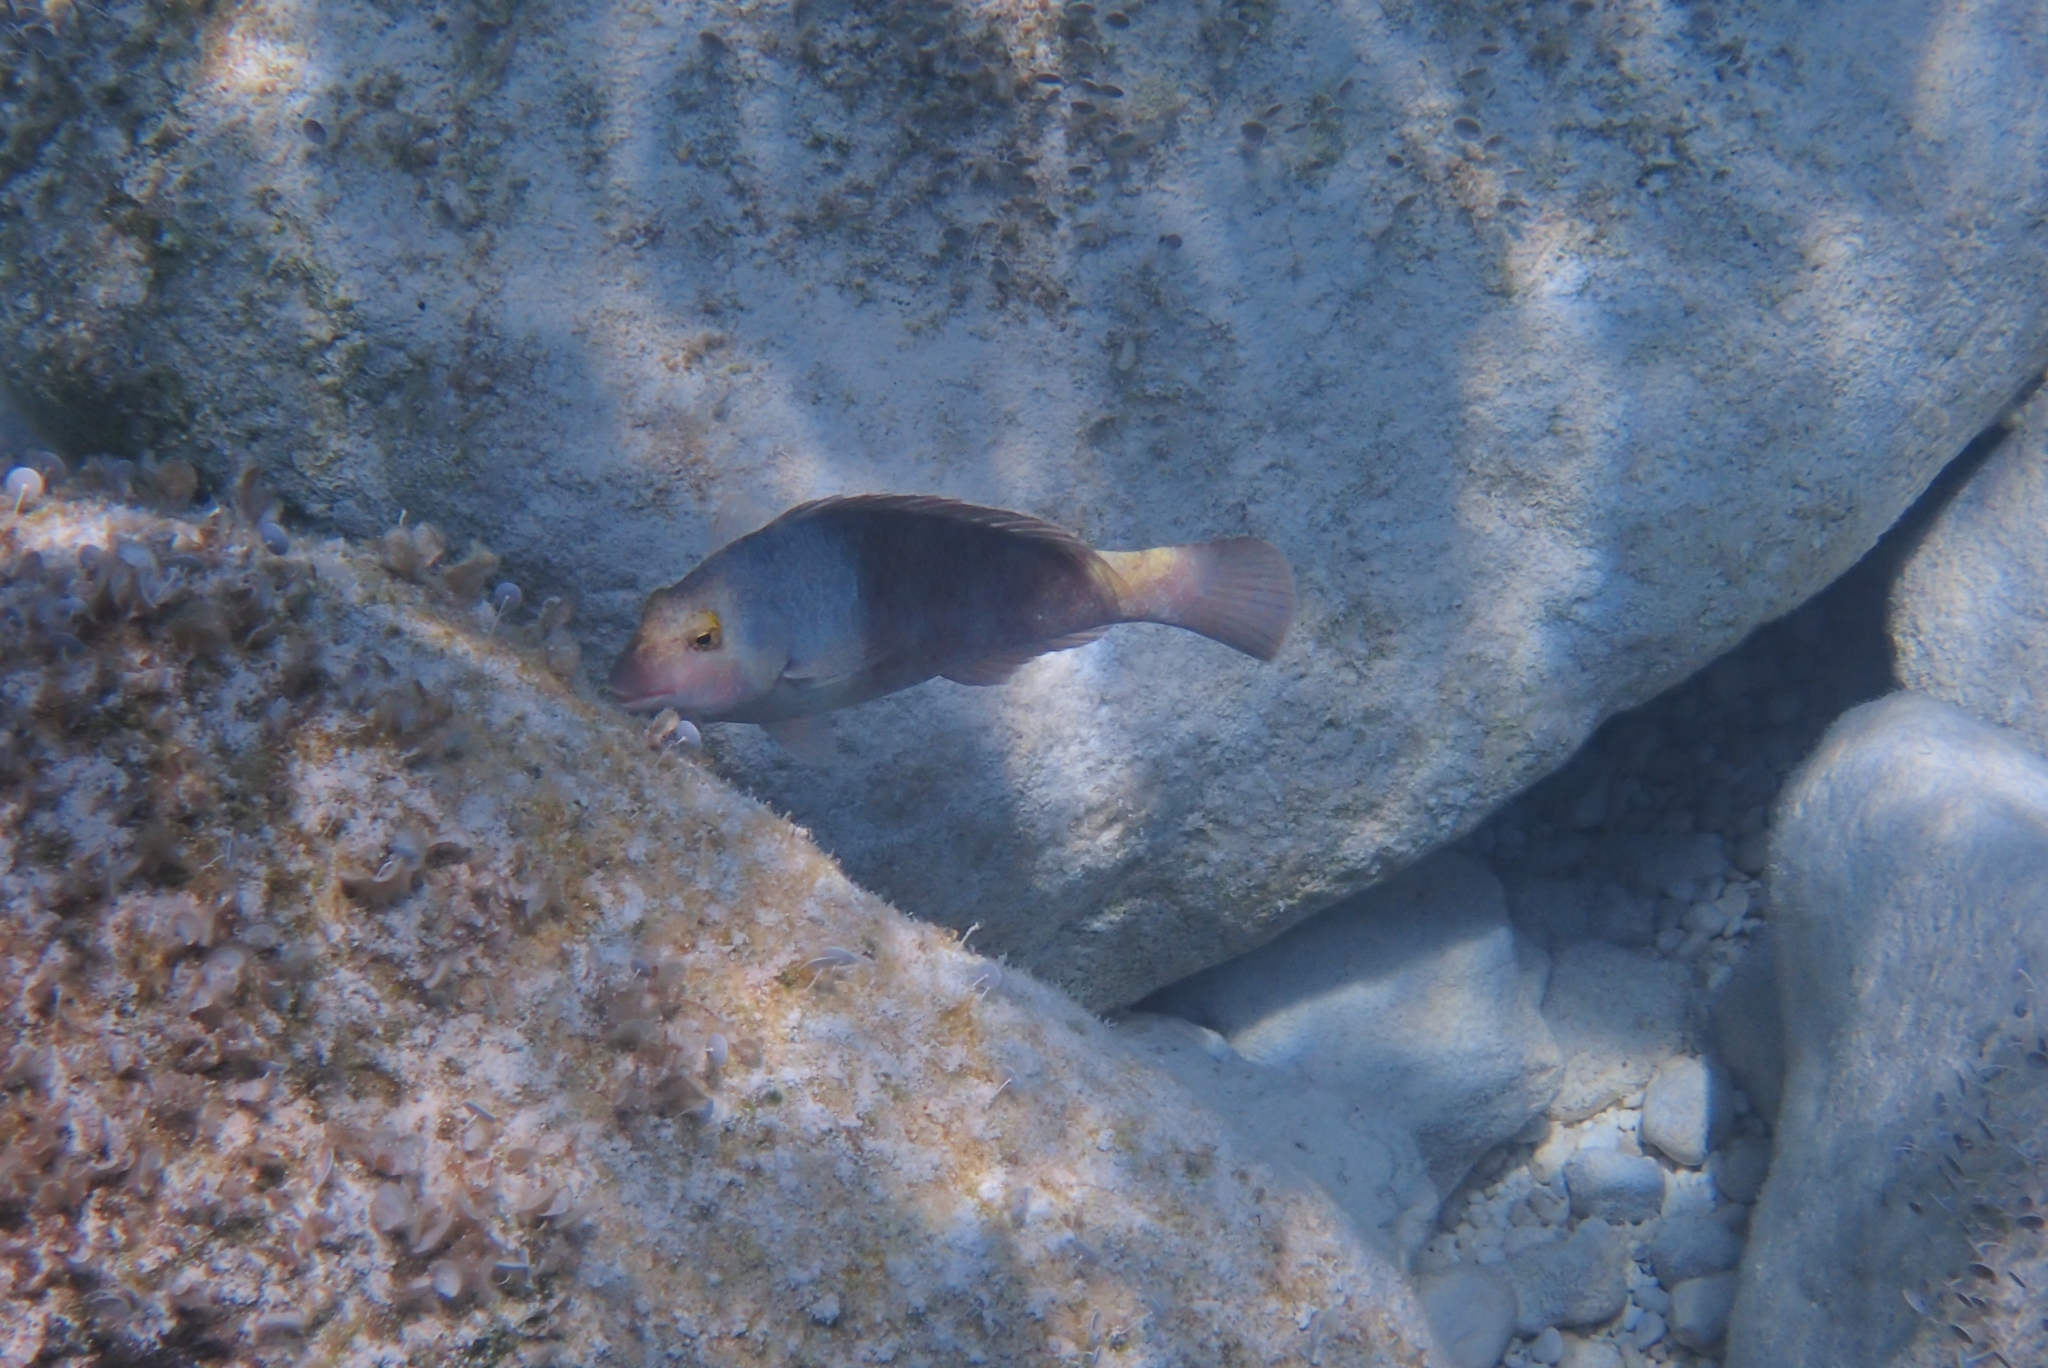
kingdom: Animalia
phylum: Chordata
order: Perciformes
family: Scaridae
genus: Sparisoma
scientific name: Sparisoma cretense
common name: Parrotfish
